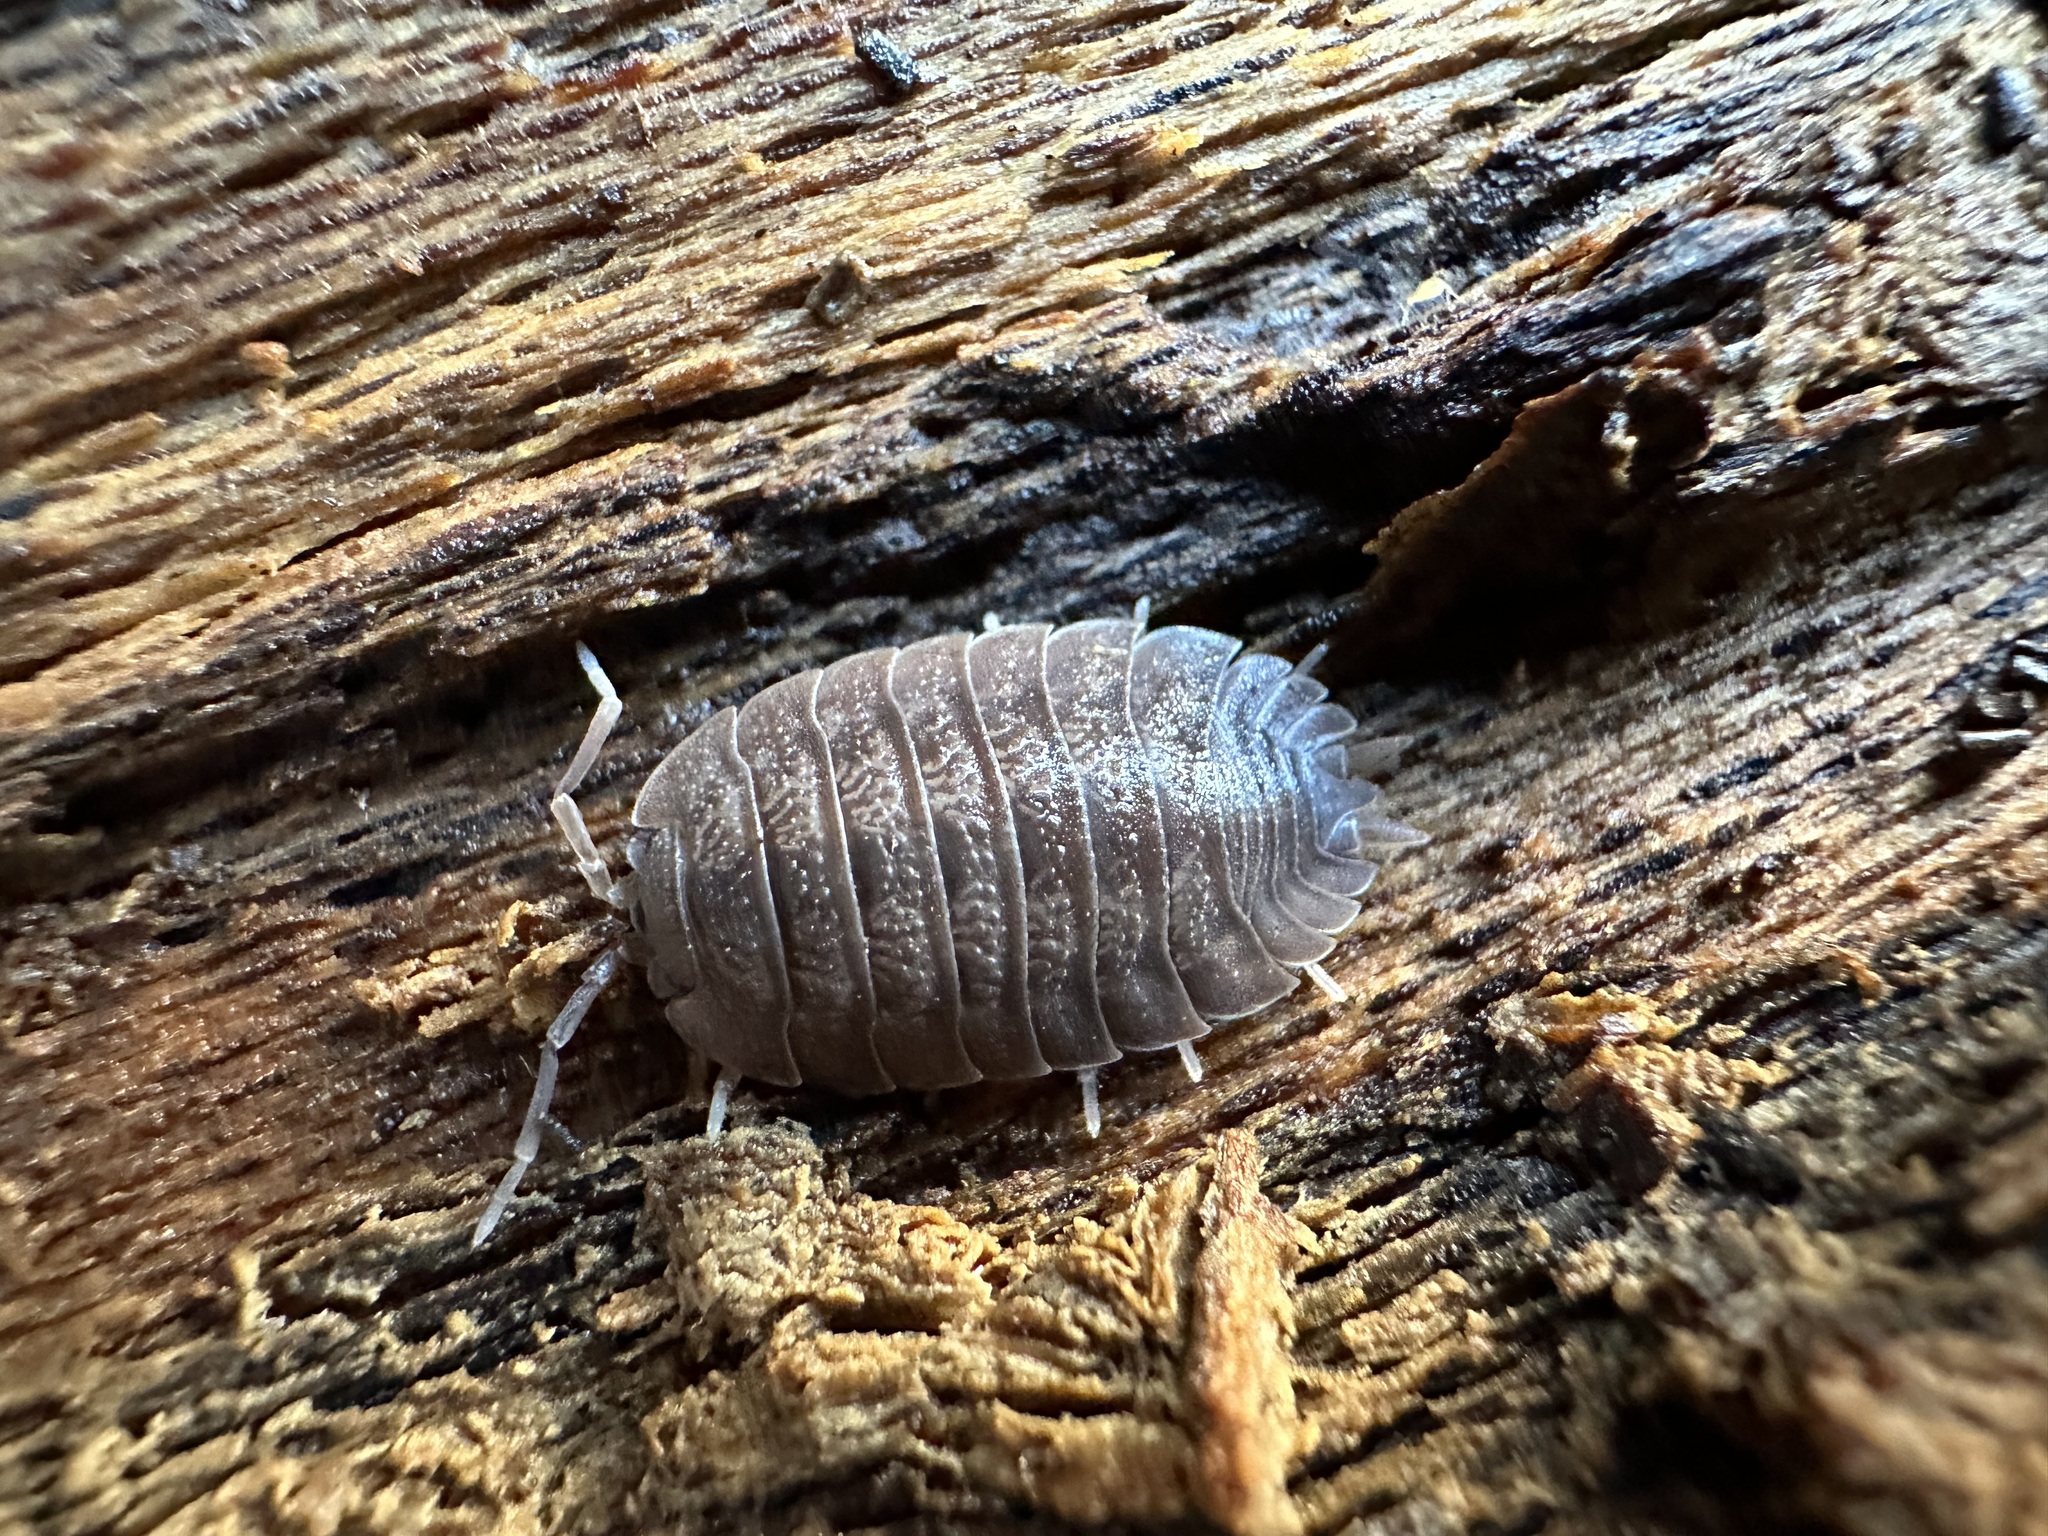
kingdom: Animalia
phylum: Arthropoda
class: Malacostraca
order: Isopoda
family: Porcellionidae
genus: Porcellio
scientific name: Porcellio dilatatus
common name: Isopod
